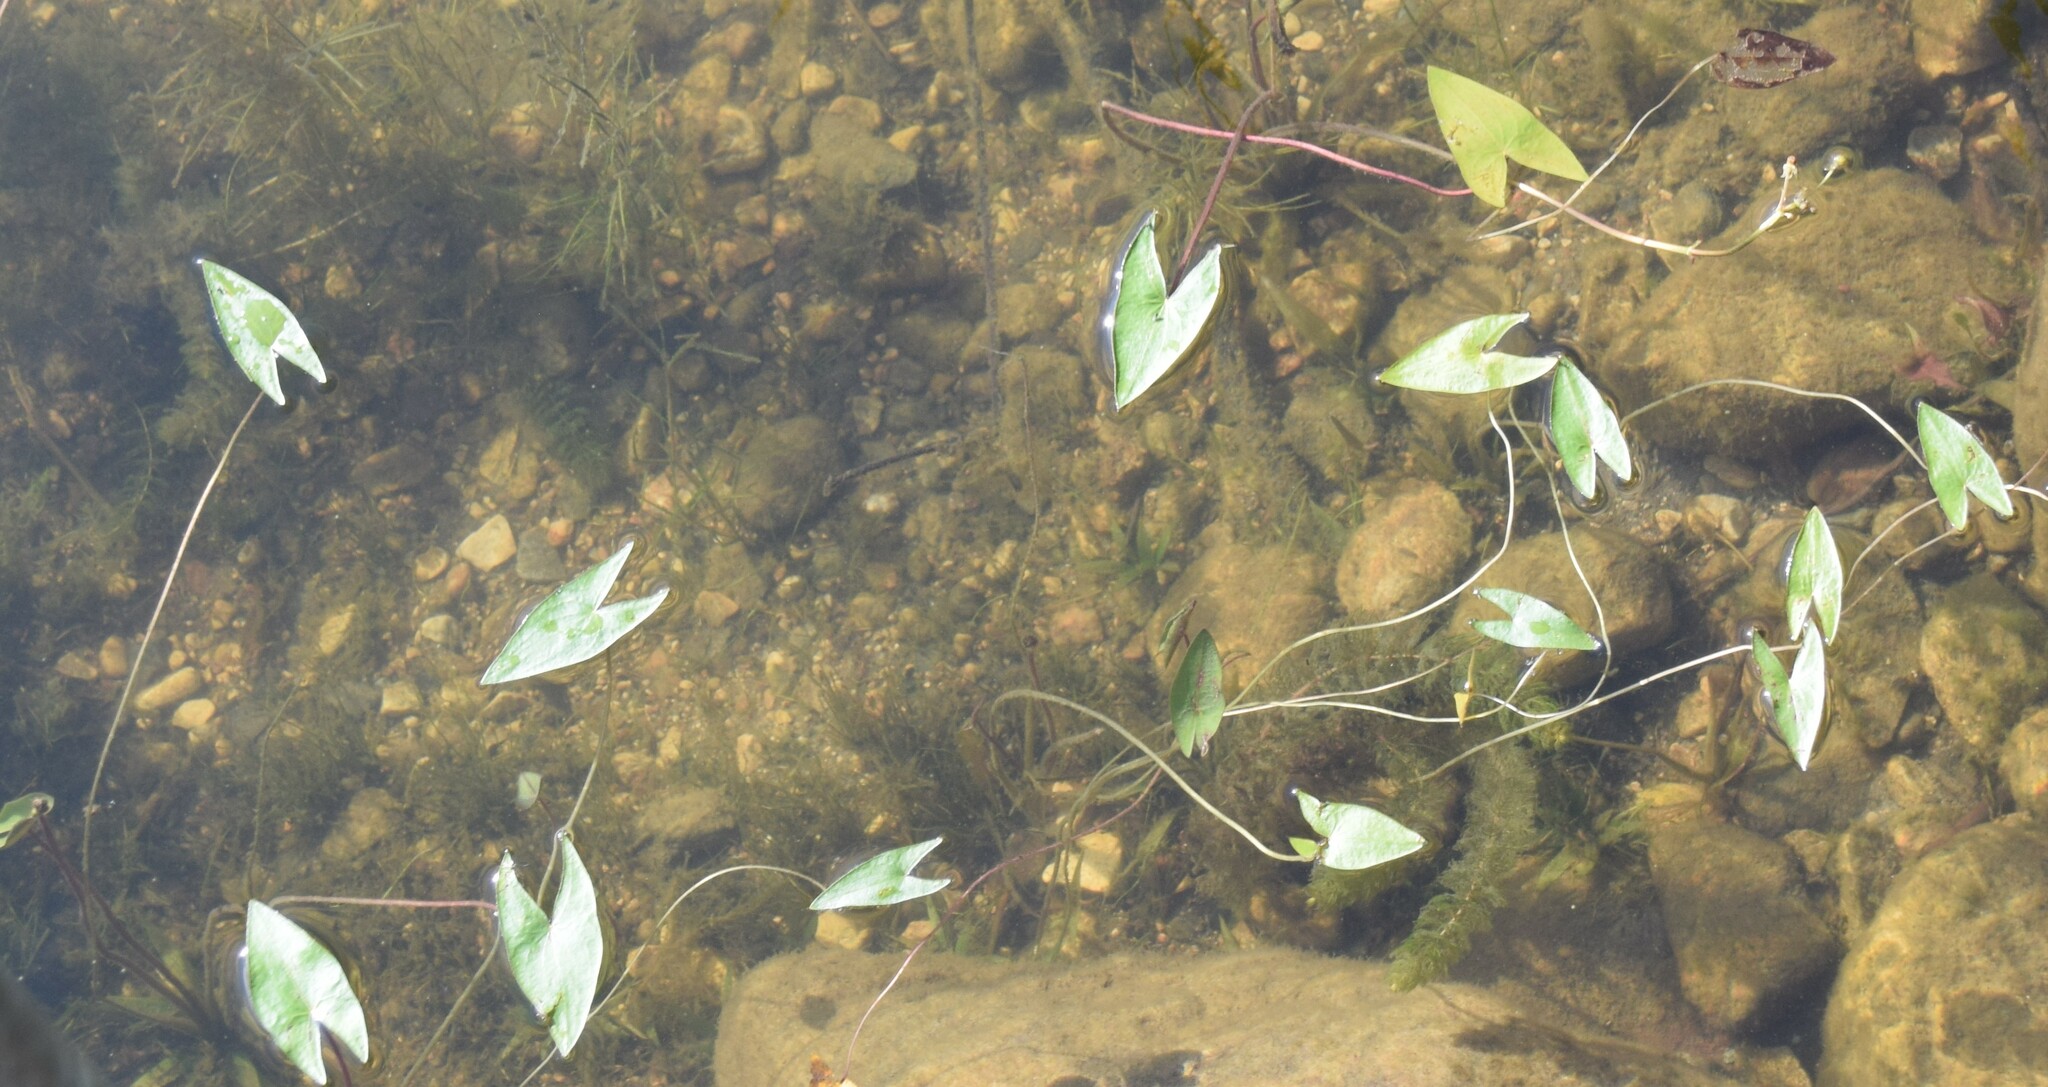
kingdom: Plantae
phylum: Tracheophyta
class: Liliopsida
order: Alismatales
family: Alismataceae
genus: Sagittaria
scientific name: Sagittaria cuneata
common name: Northern arrowhead
